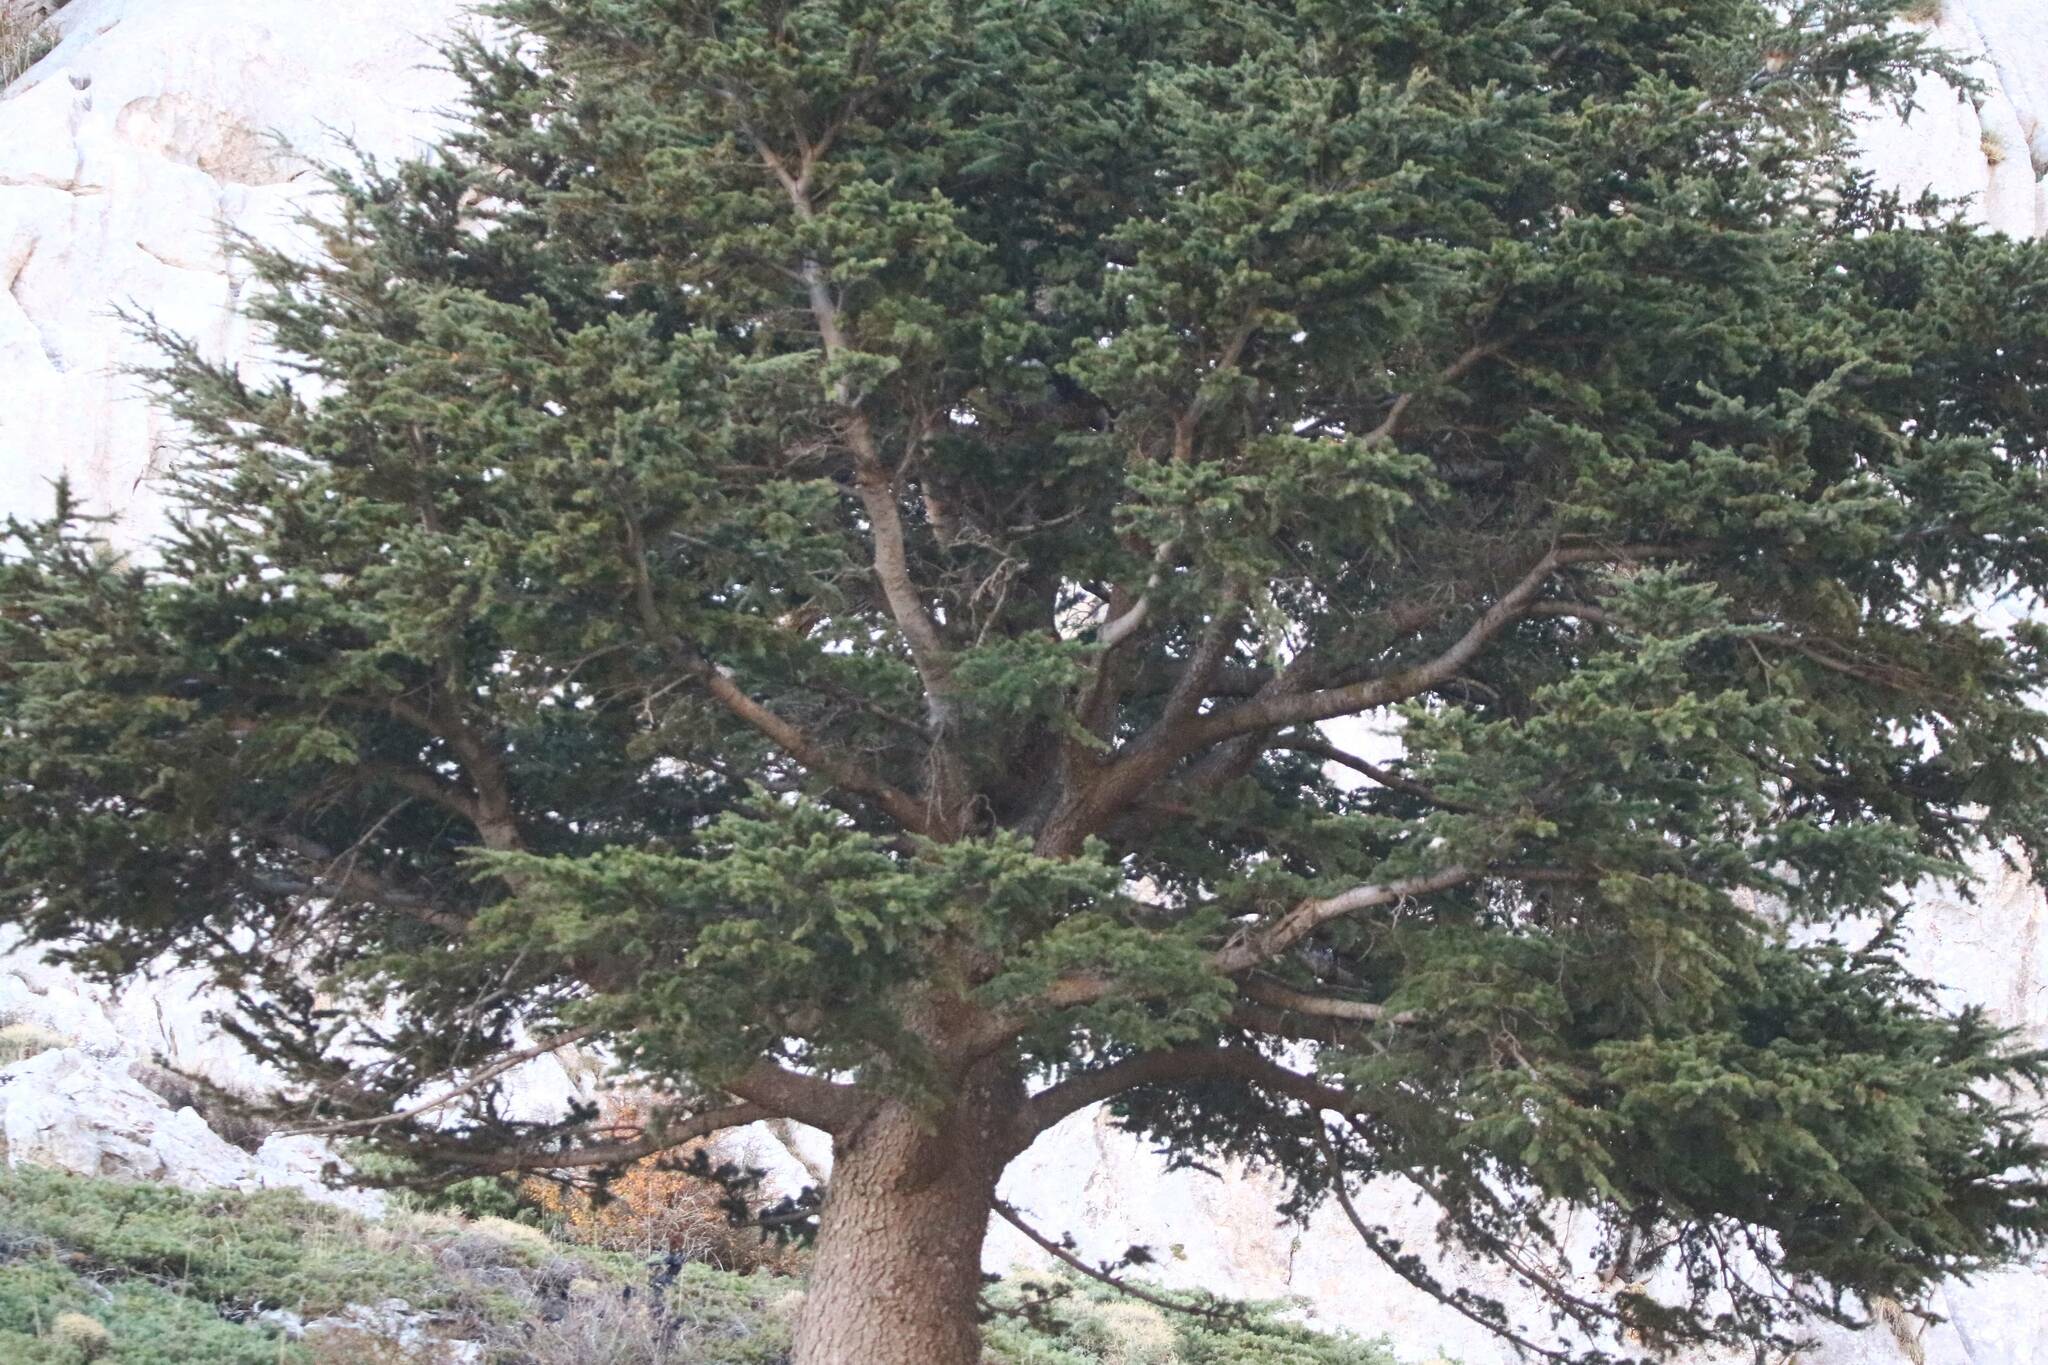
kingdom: Plantae
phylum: Tracheophyta
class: Pinopsida
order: Pinales
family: Pinaceae
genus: Cedrus
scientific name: Cedrus atlantica
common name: Atlas cedar
